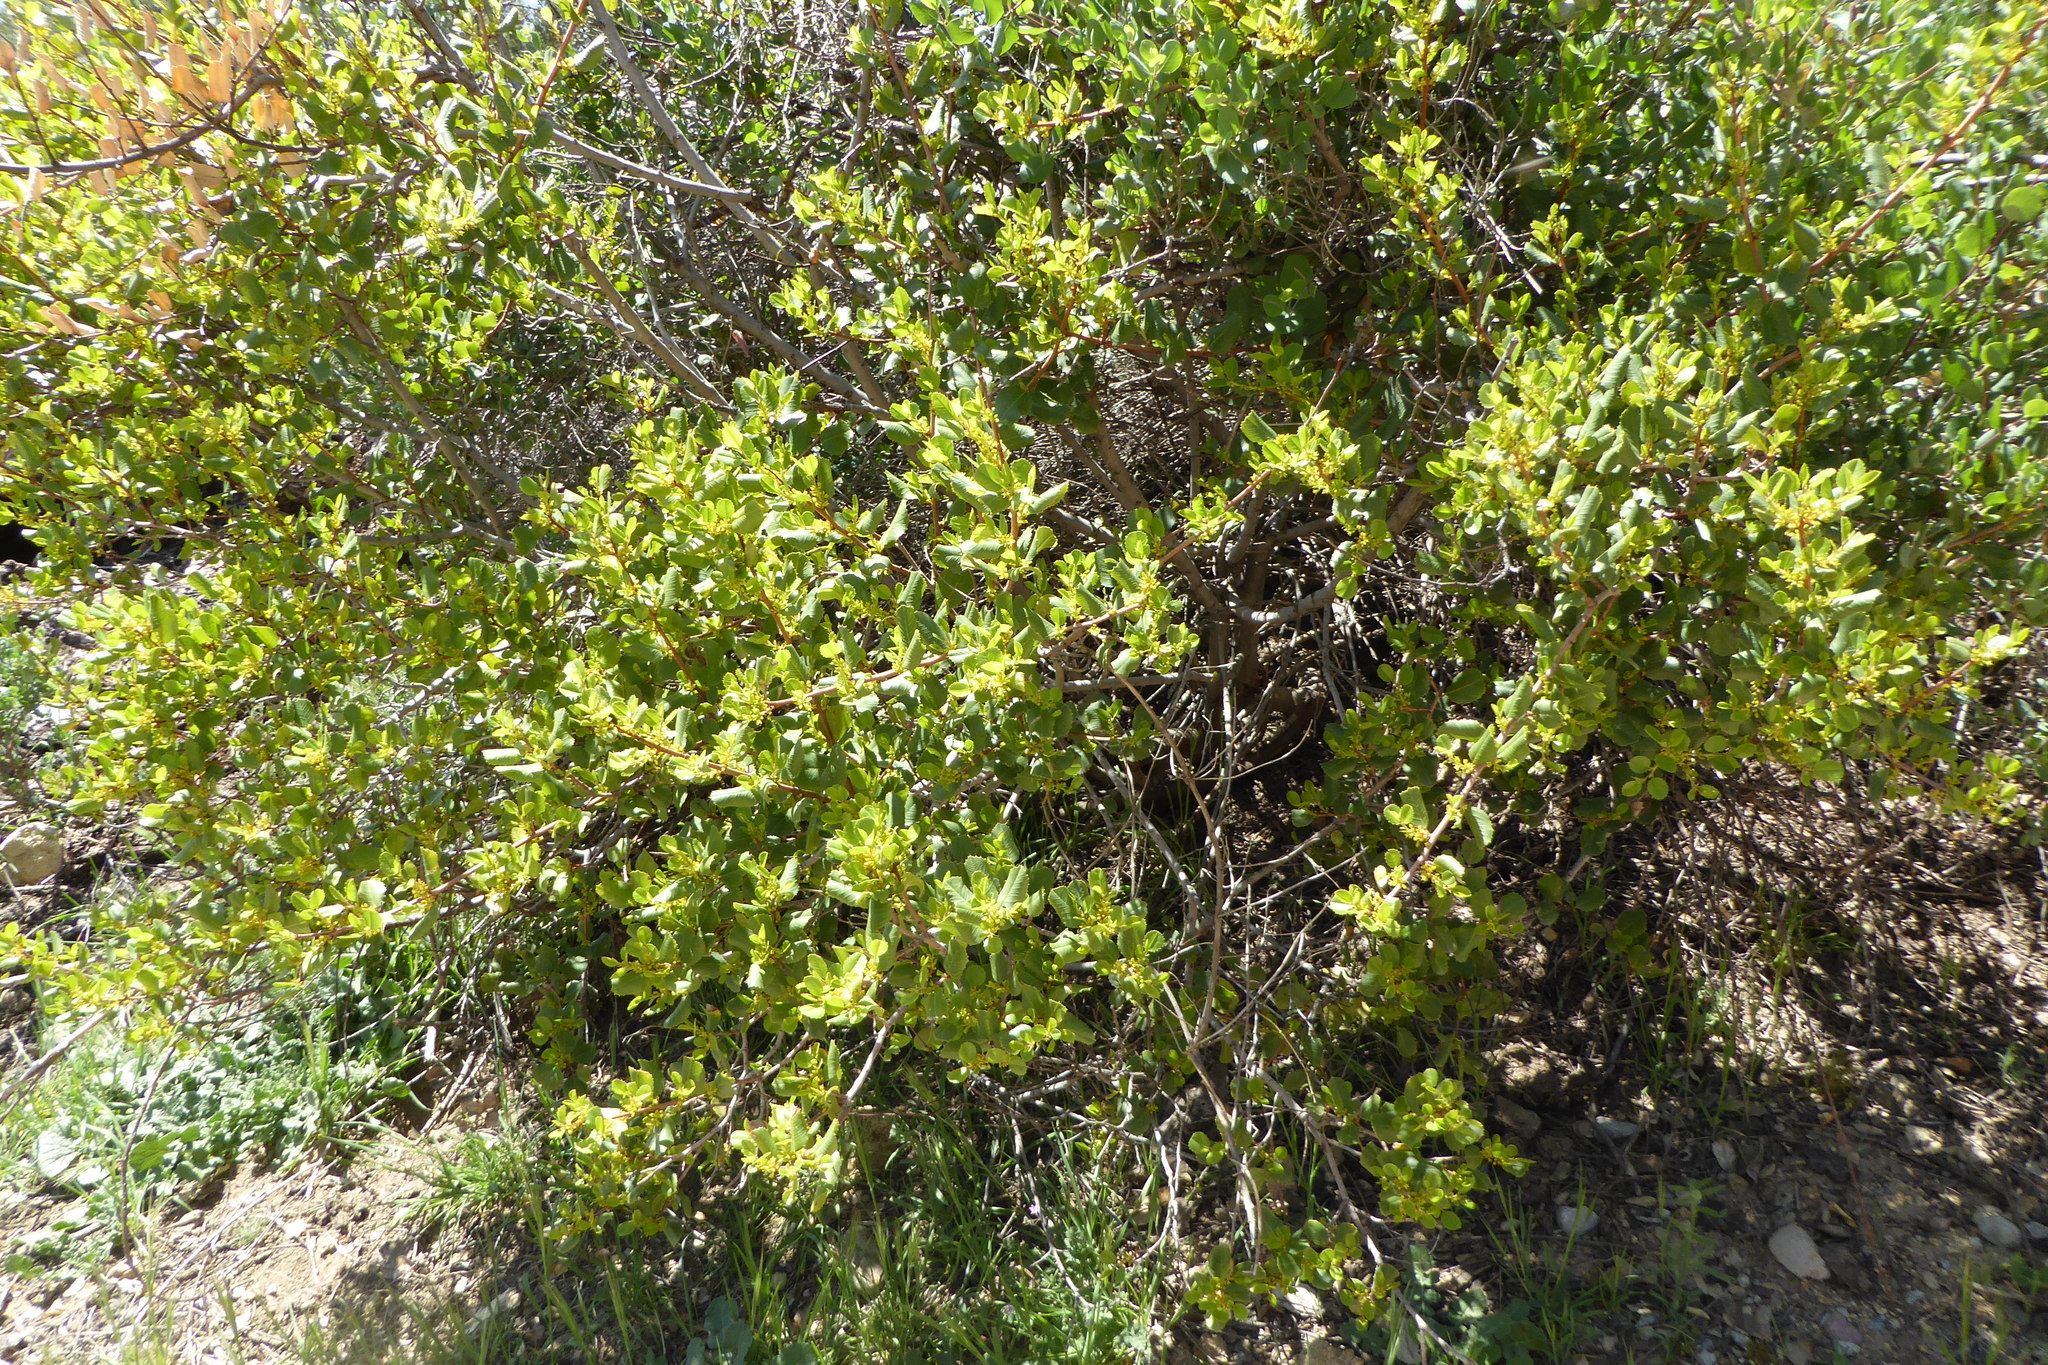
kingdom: Plantae
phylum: Tracheophyta
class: Magnoliopsida
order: Rosales
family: Rhamnaceae
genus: Endotropis
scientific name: Endotropis crocea
